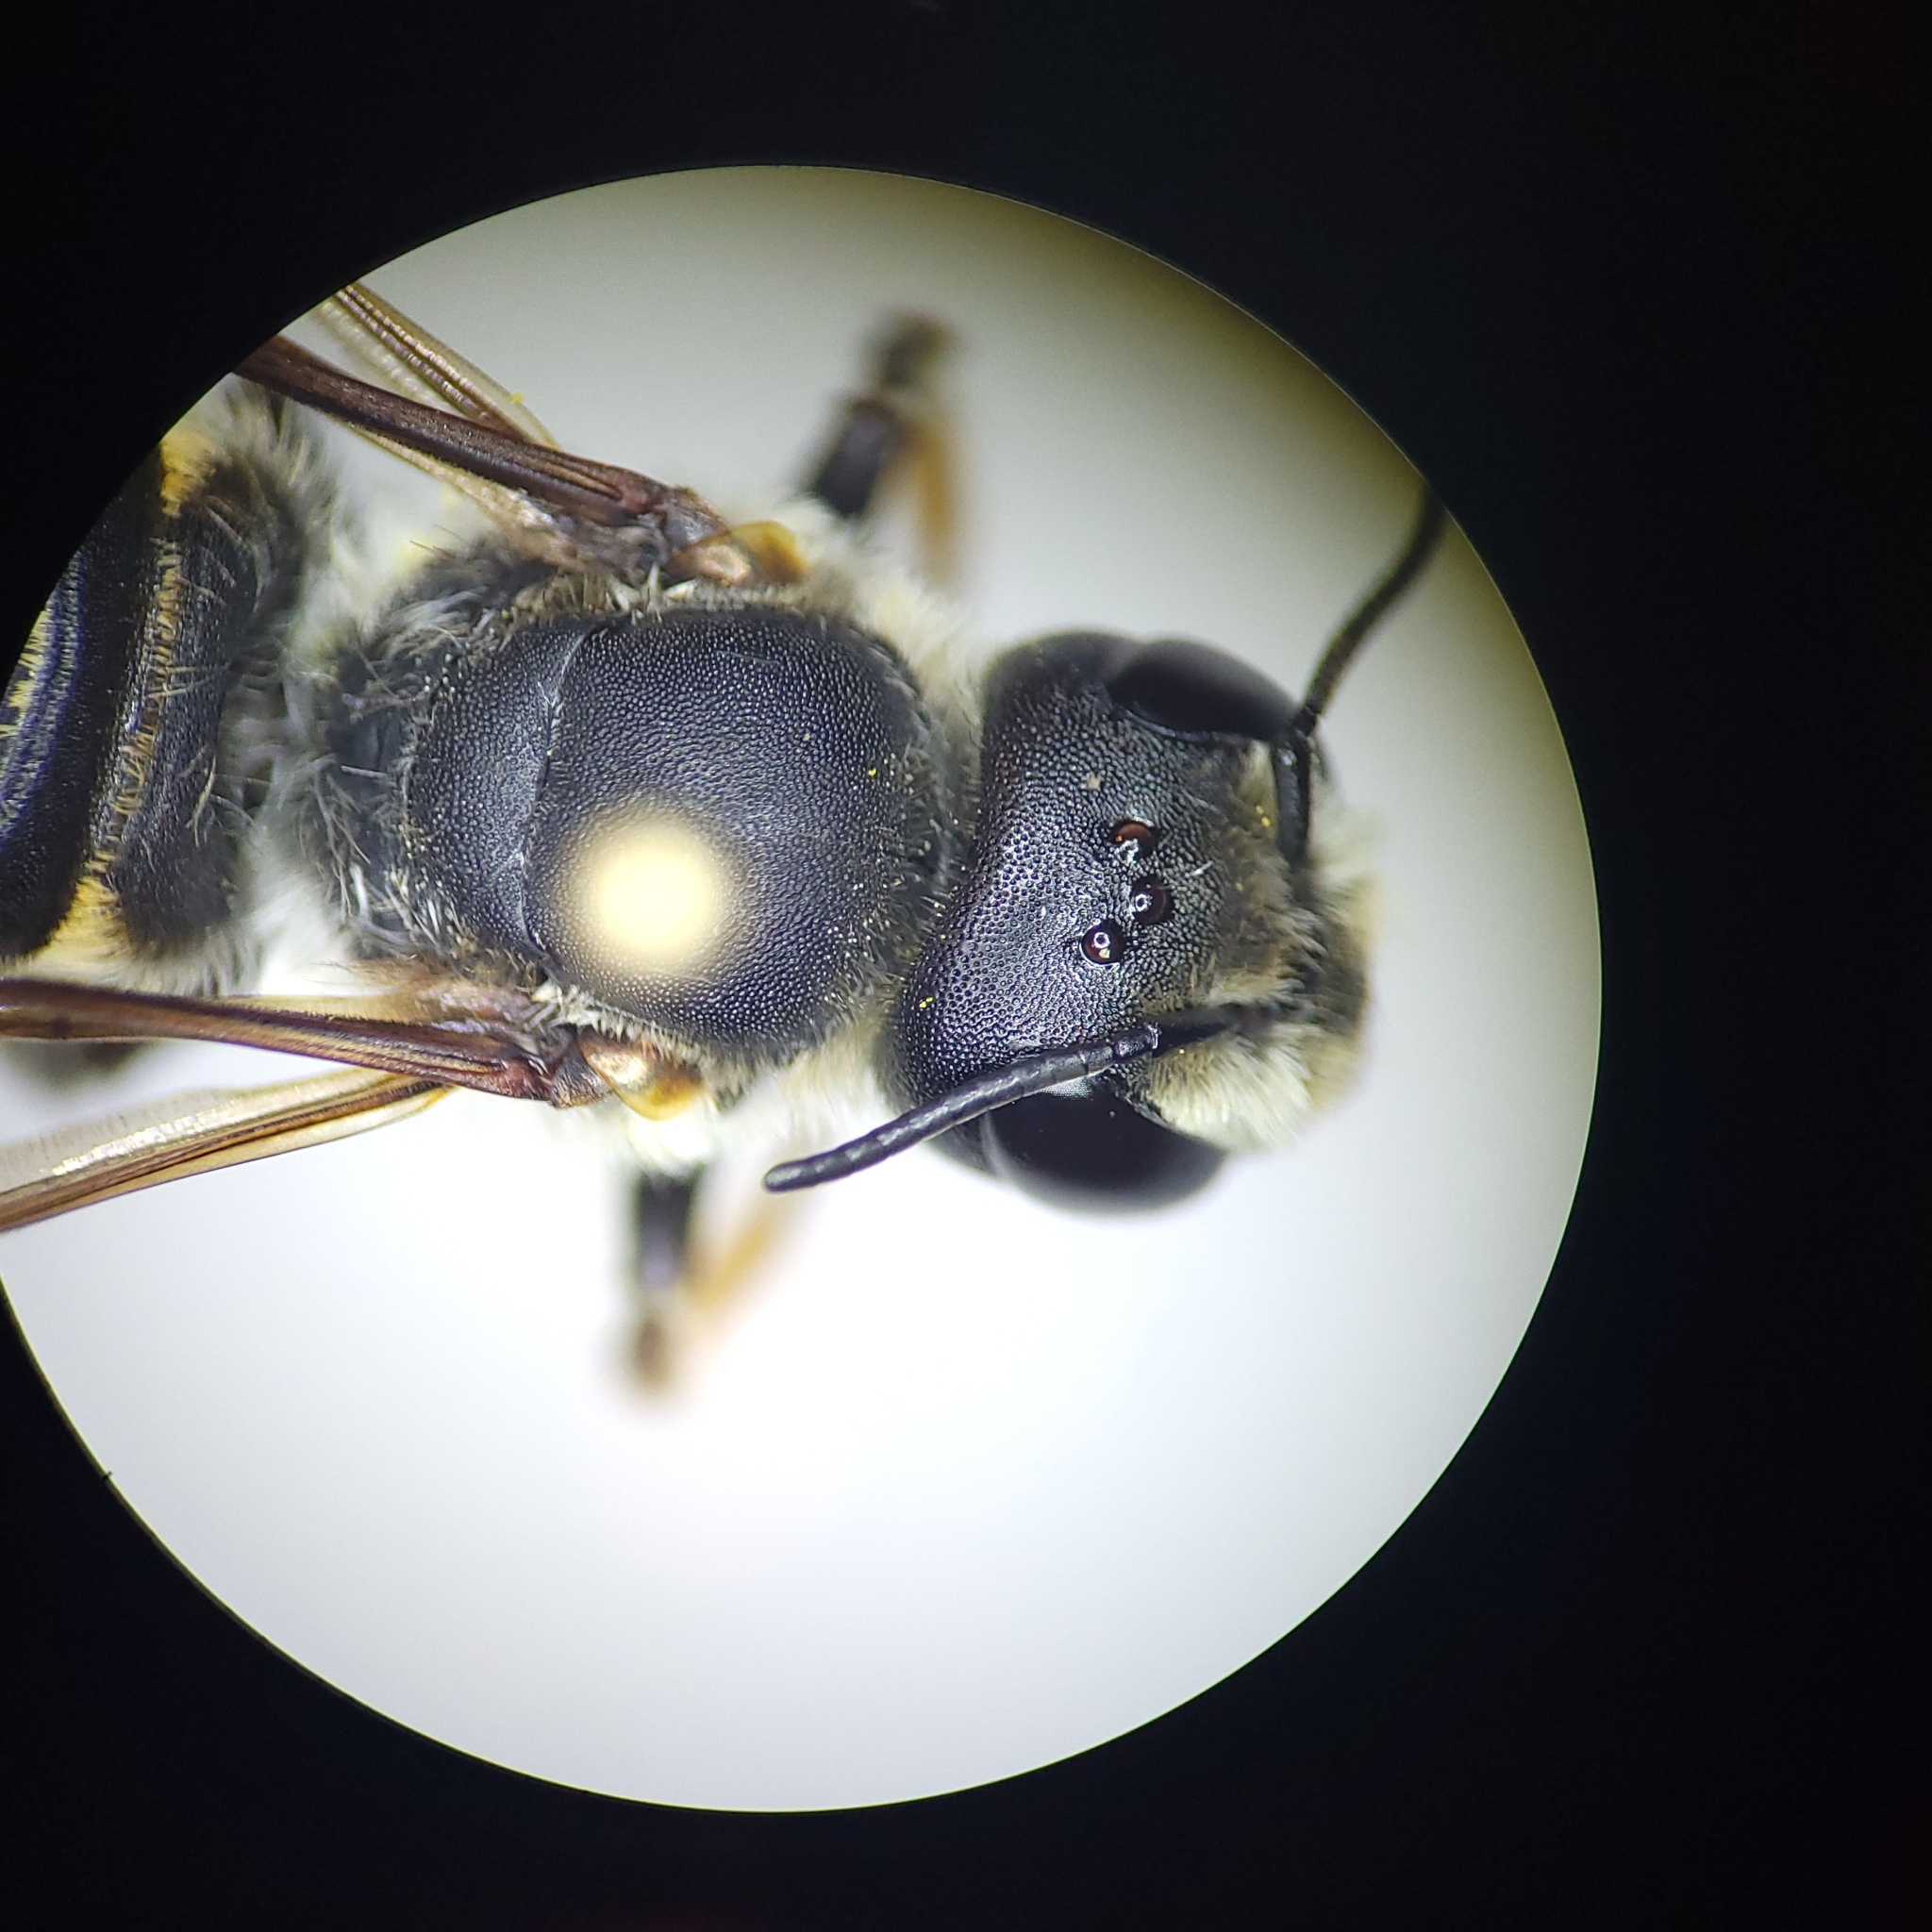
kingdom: Animalia
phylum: Arthropoda
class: Insecta
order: Hymenoptera
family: Megachilidae
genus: Megachile
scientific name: Megachile inimica
